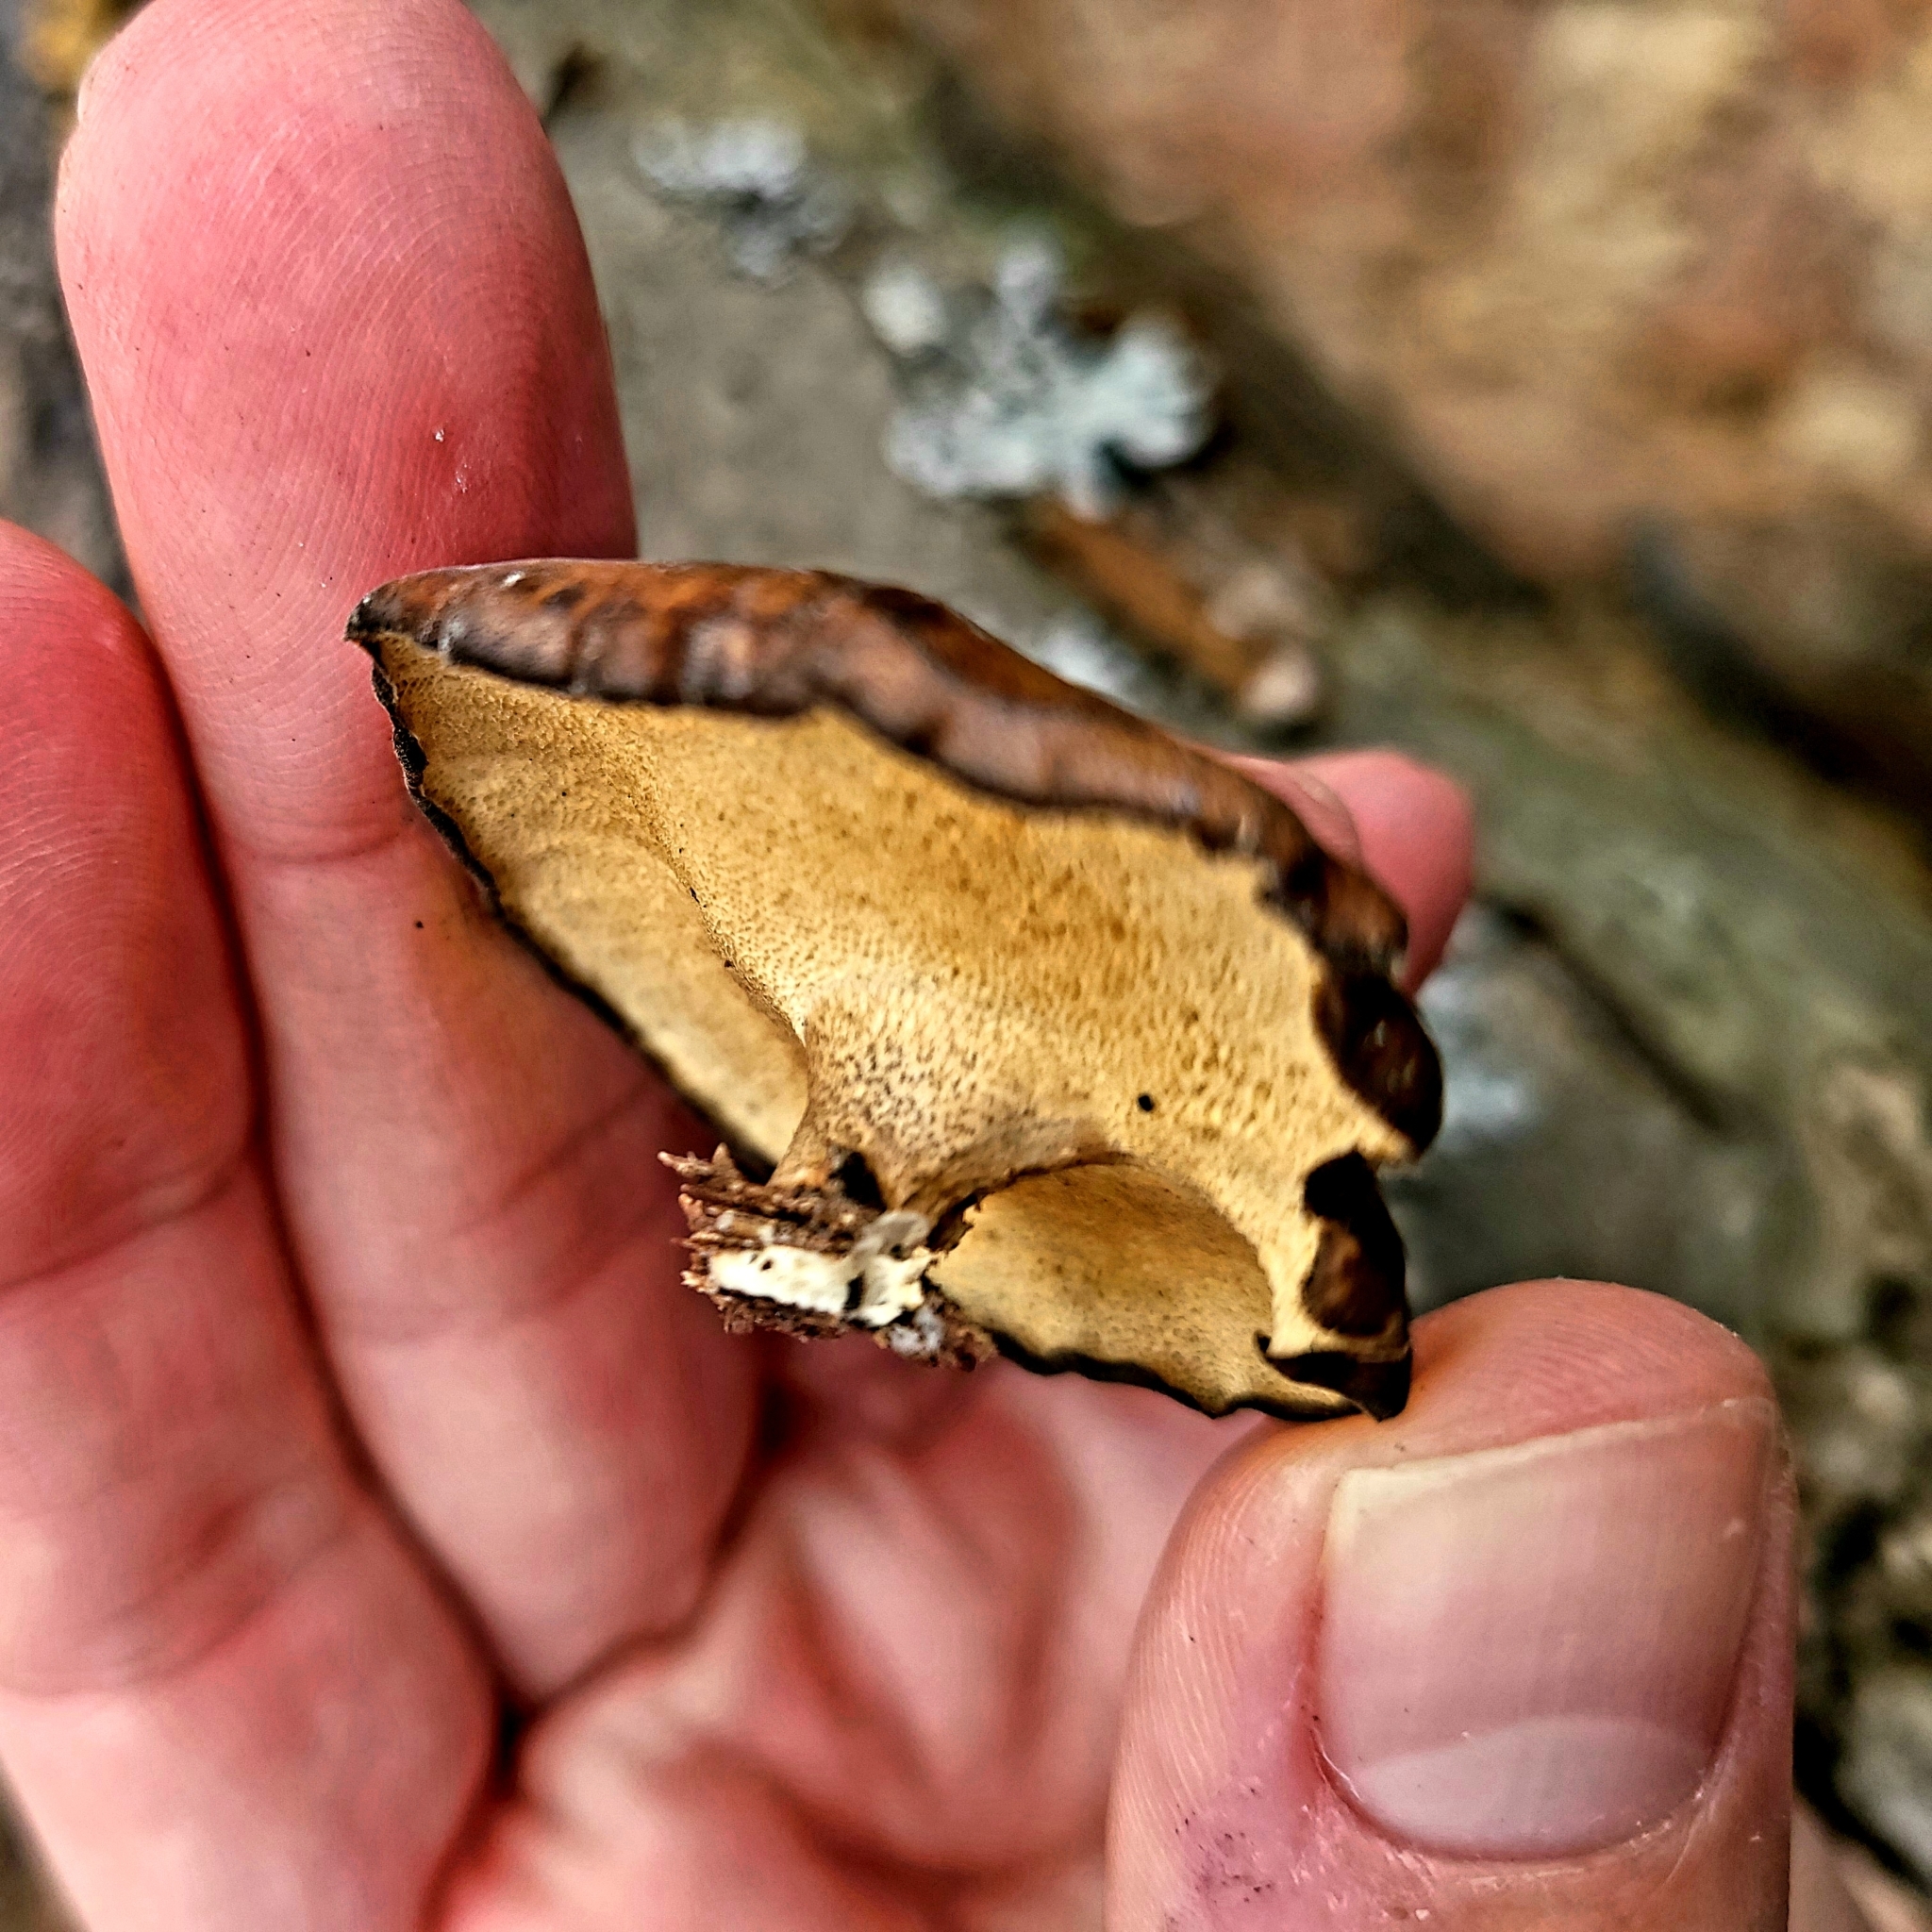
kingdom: Fungi
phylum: Basidiomycota
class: Agaricomycetes
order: Polyporales
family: Polyporaceae
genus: Lentinus
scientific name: Lentinus brumalis
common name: Winter polypore
